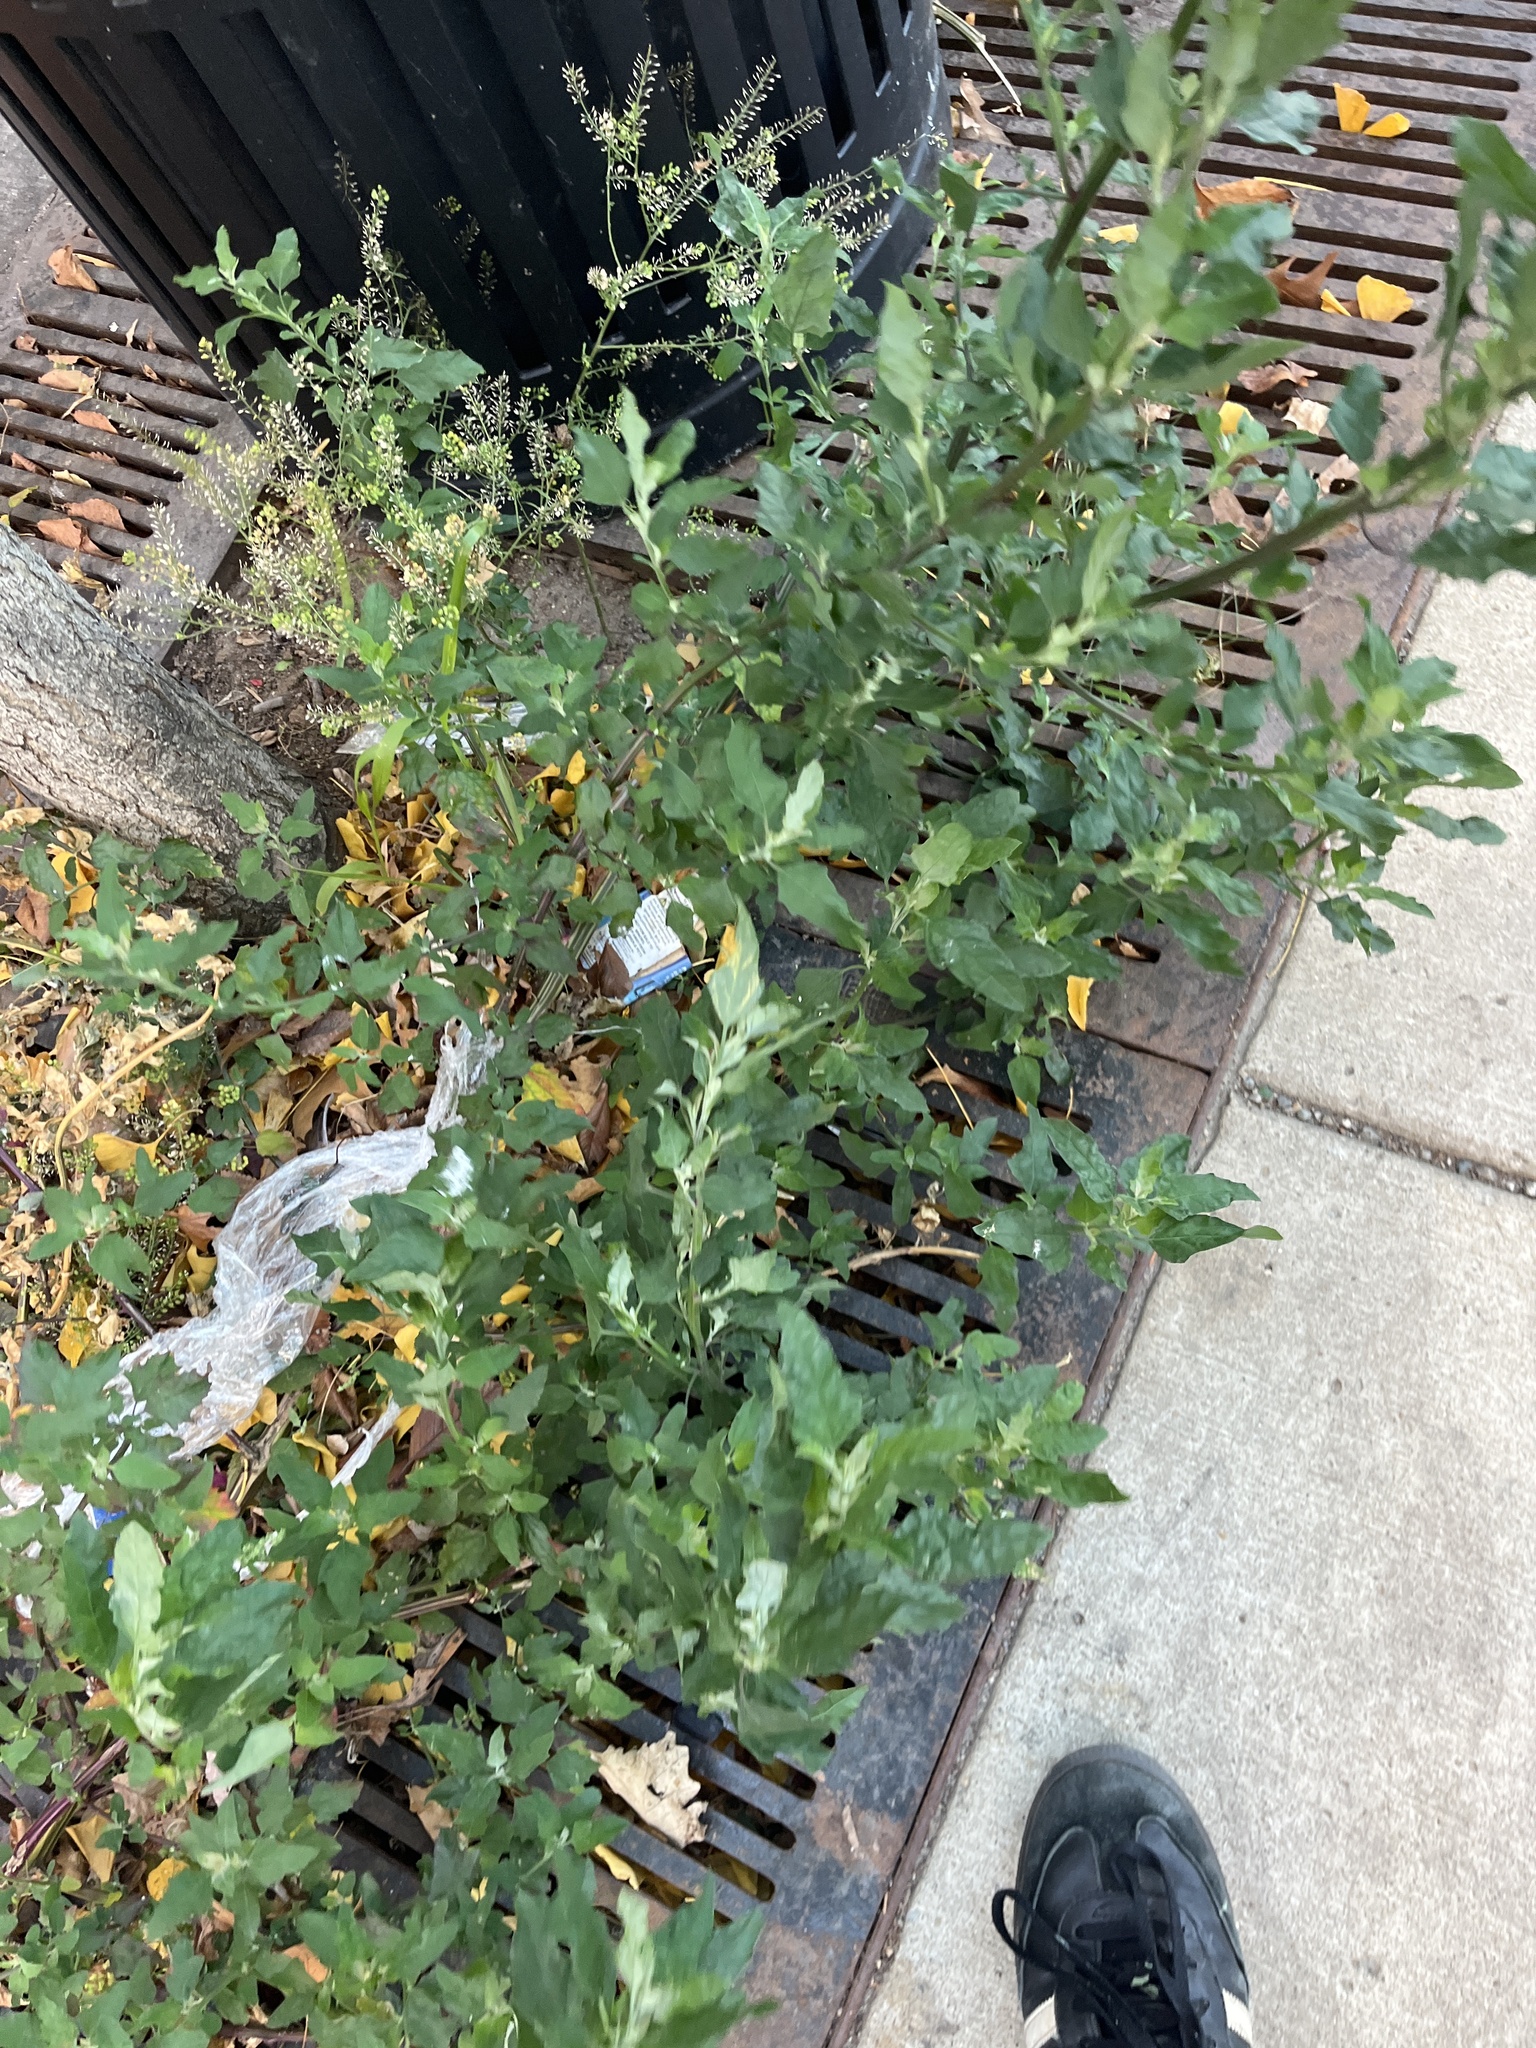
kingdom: Plantae
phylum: Tracheophyta
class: Magnoliopsida
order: Caryophyllales
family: Amaranthaceae
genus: Chenopodium
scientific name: Chenopodium album
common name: Fat-hen
